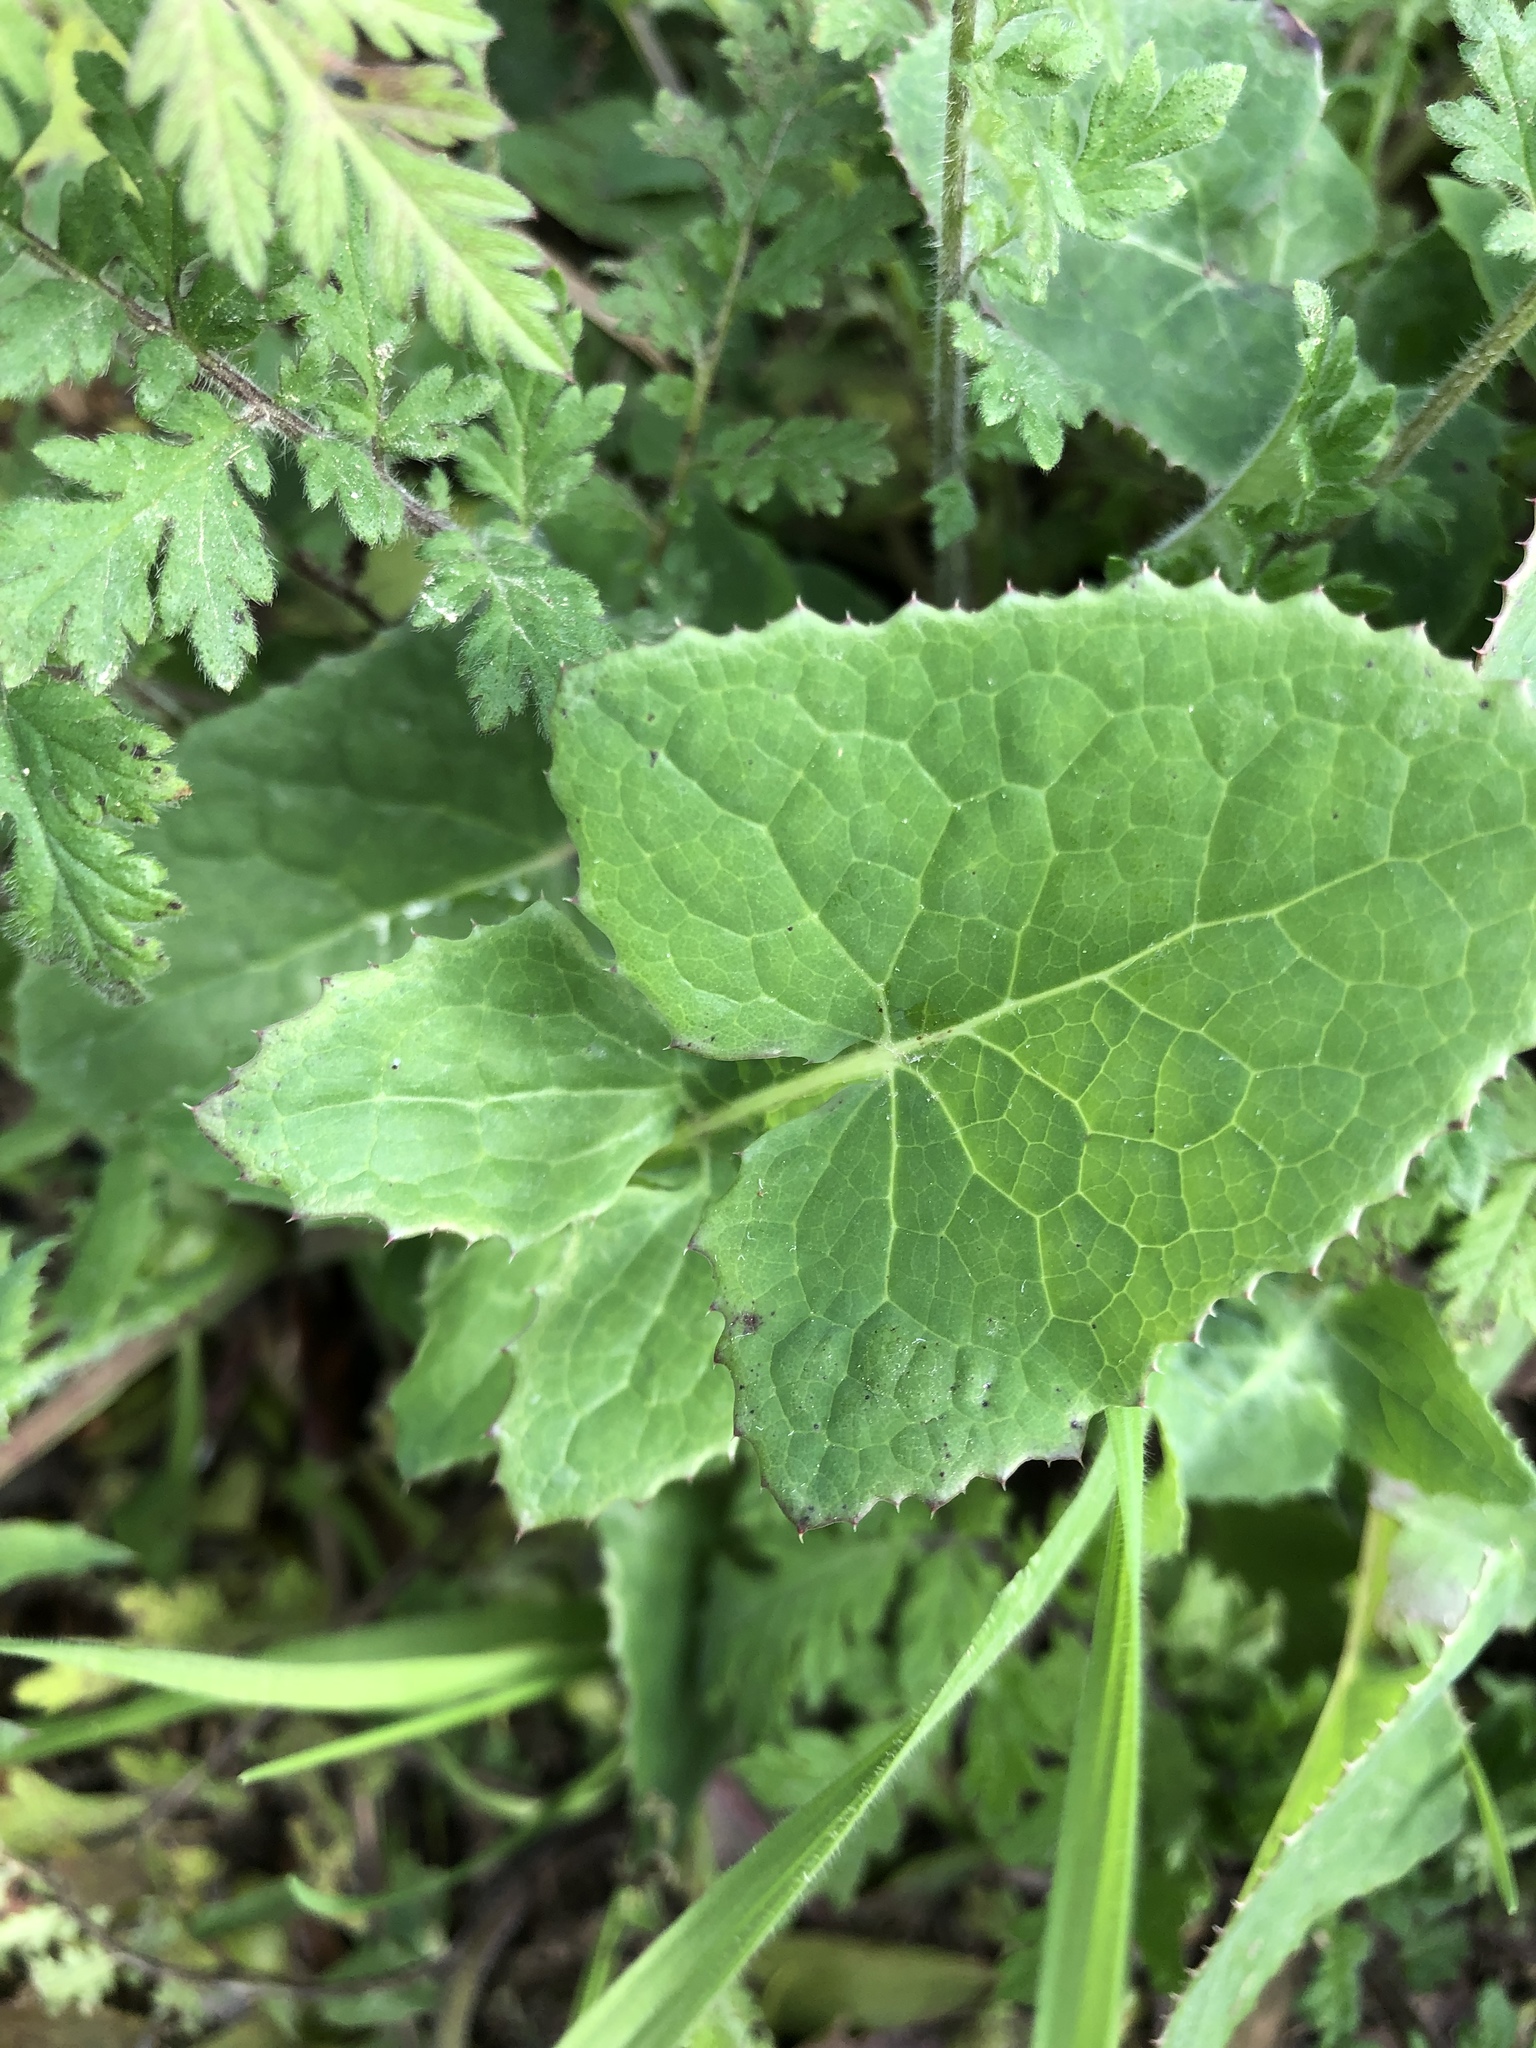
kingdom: Plantae
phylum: Tracheophyta
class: Magnoliopsida
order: Asterales
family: Asteraceae
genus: Sonchus
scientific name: Sonchus oleraceus
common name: Common sowthistle
